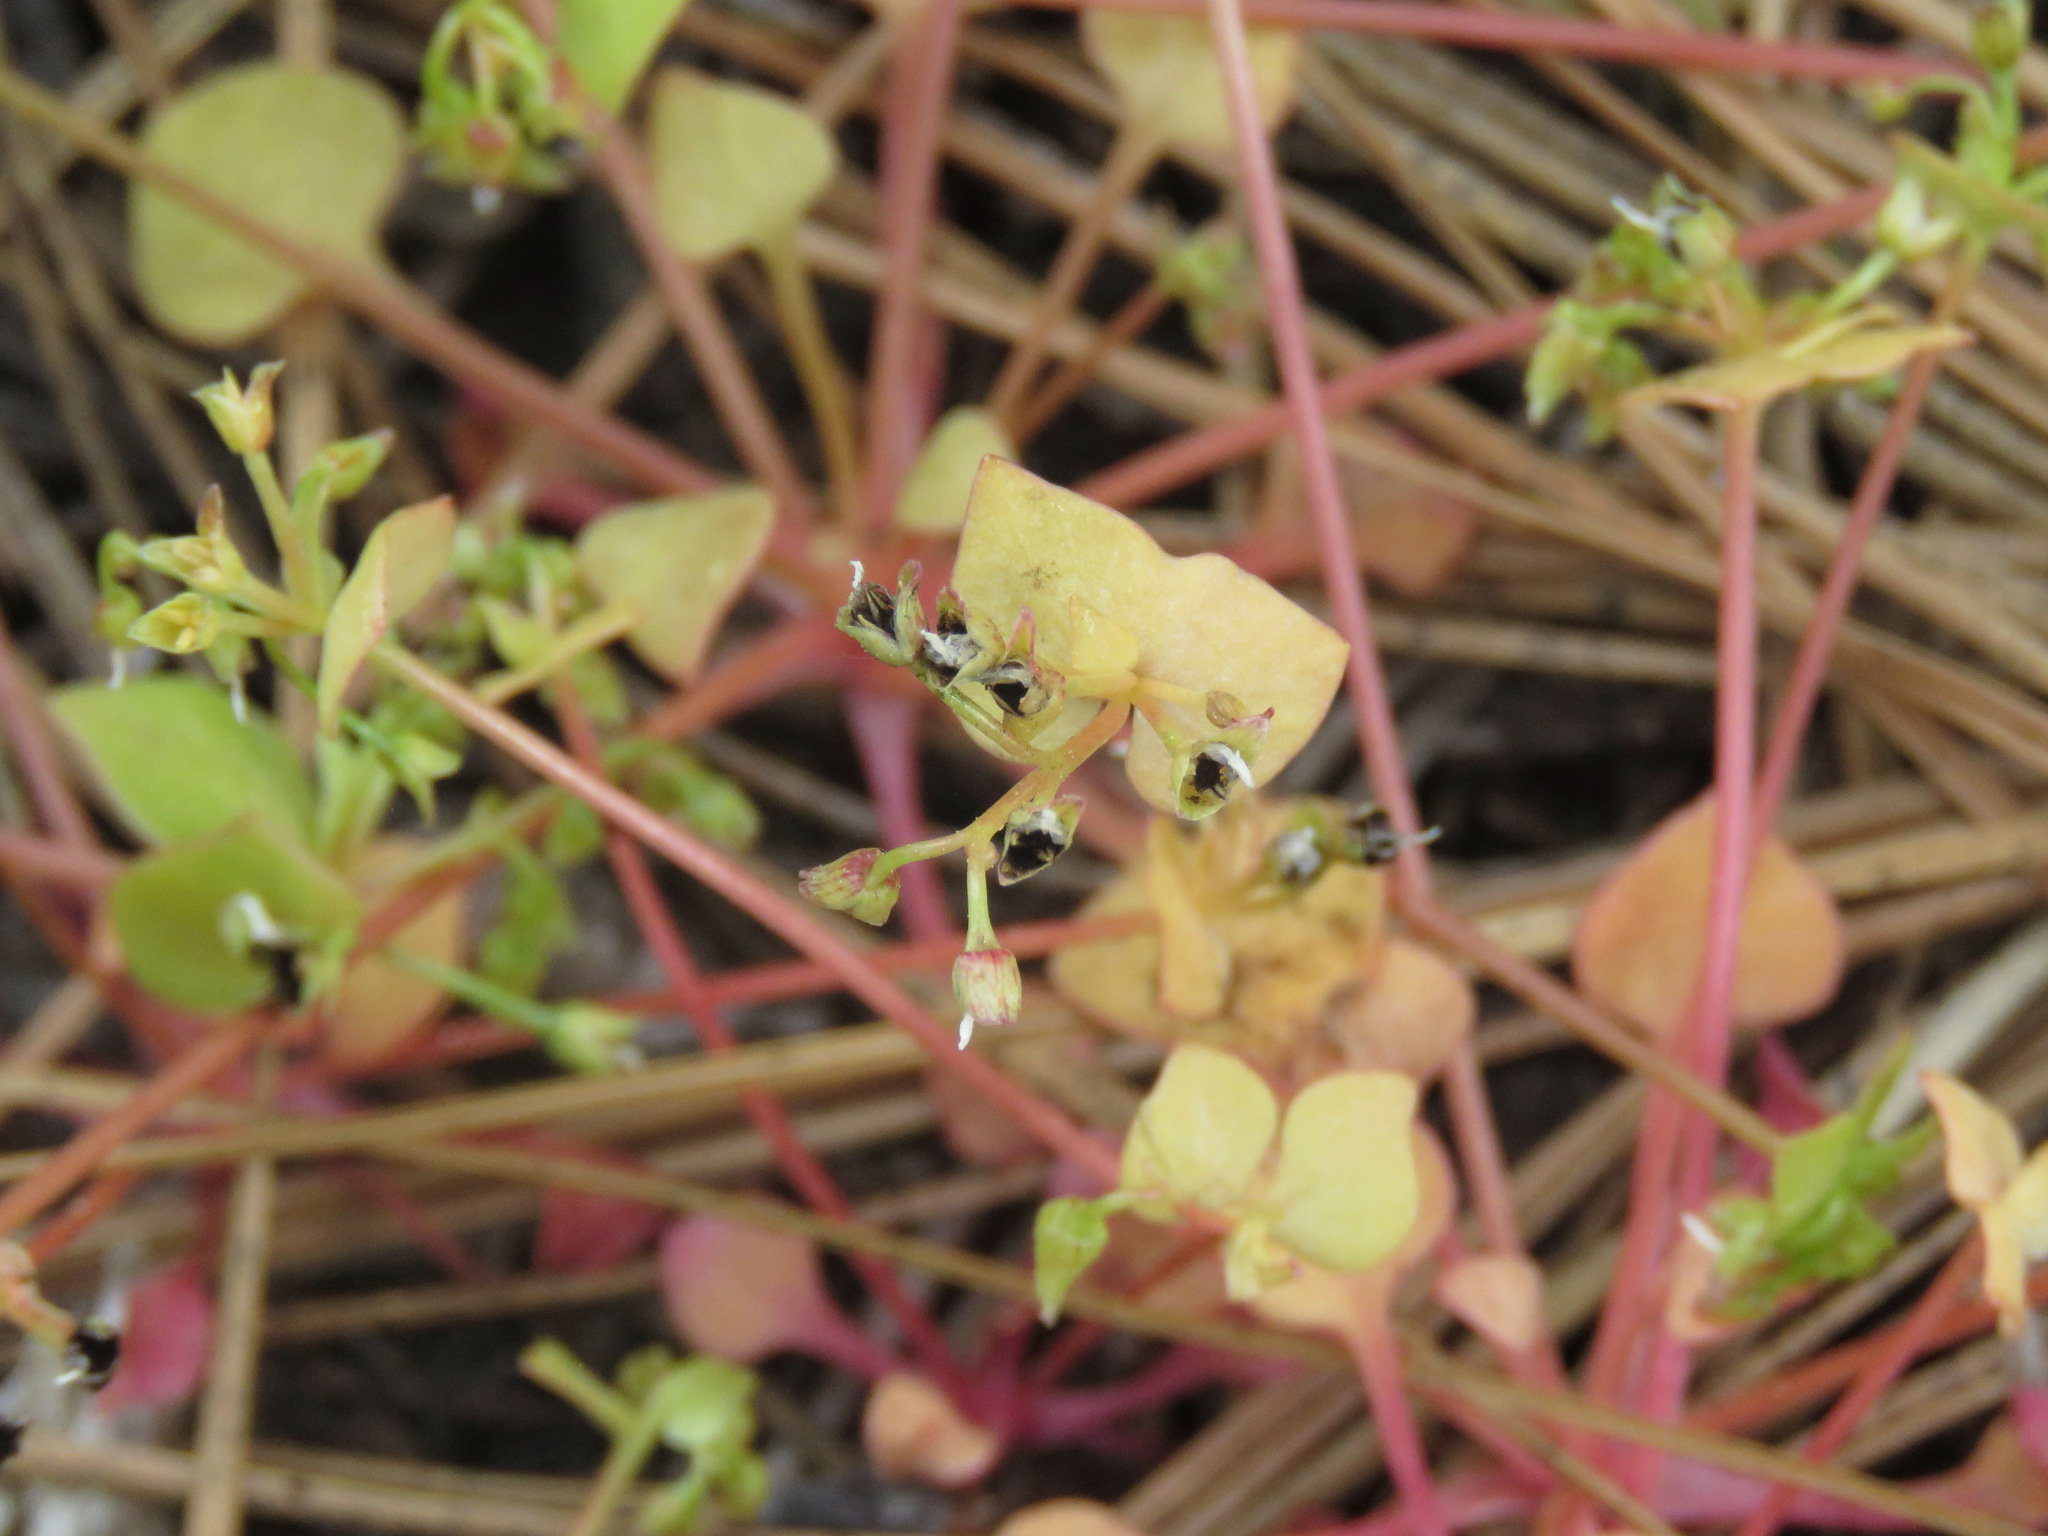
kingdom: Plantae
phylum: Tracheophyta
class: Magnoliopsida
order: Caryophyllales
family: Montiaceae
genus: Claytonia
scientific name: Claytonia rubra
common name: Erubescent miner's-lettuce
